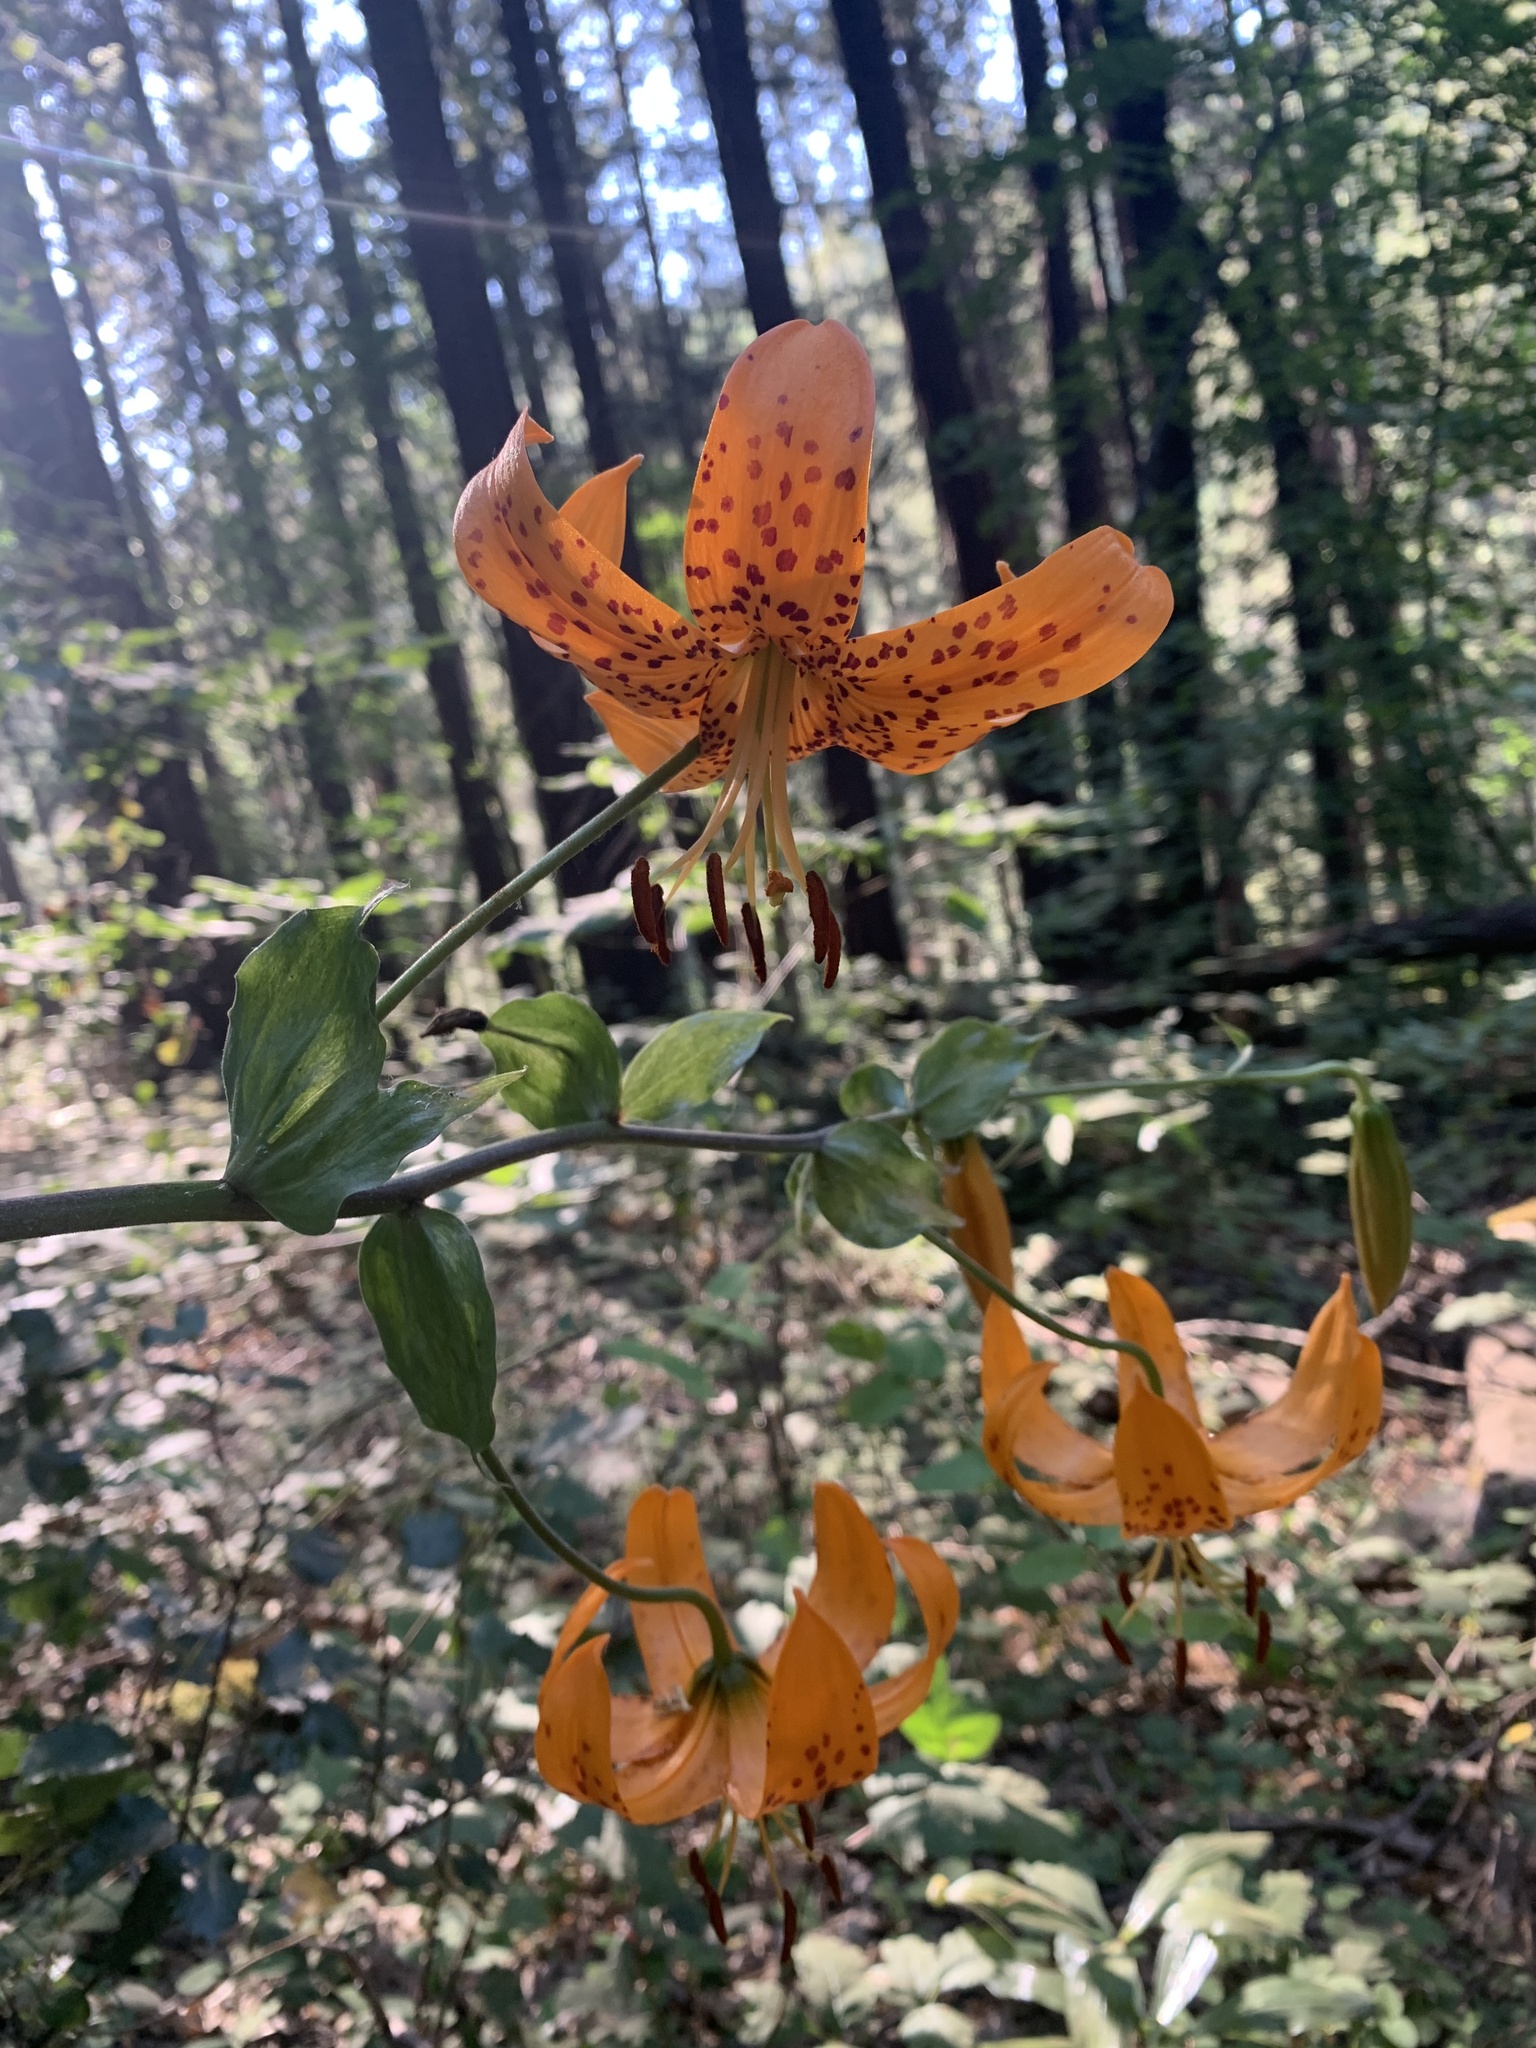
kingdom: Plantae
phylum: Tracheophyta
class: Liliopsida
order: Liliales
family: Liliaceae
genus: Lilium
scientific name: Lilium humboldtii
